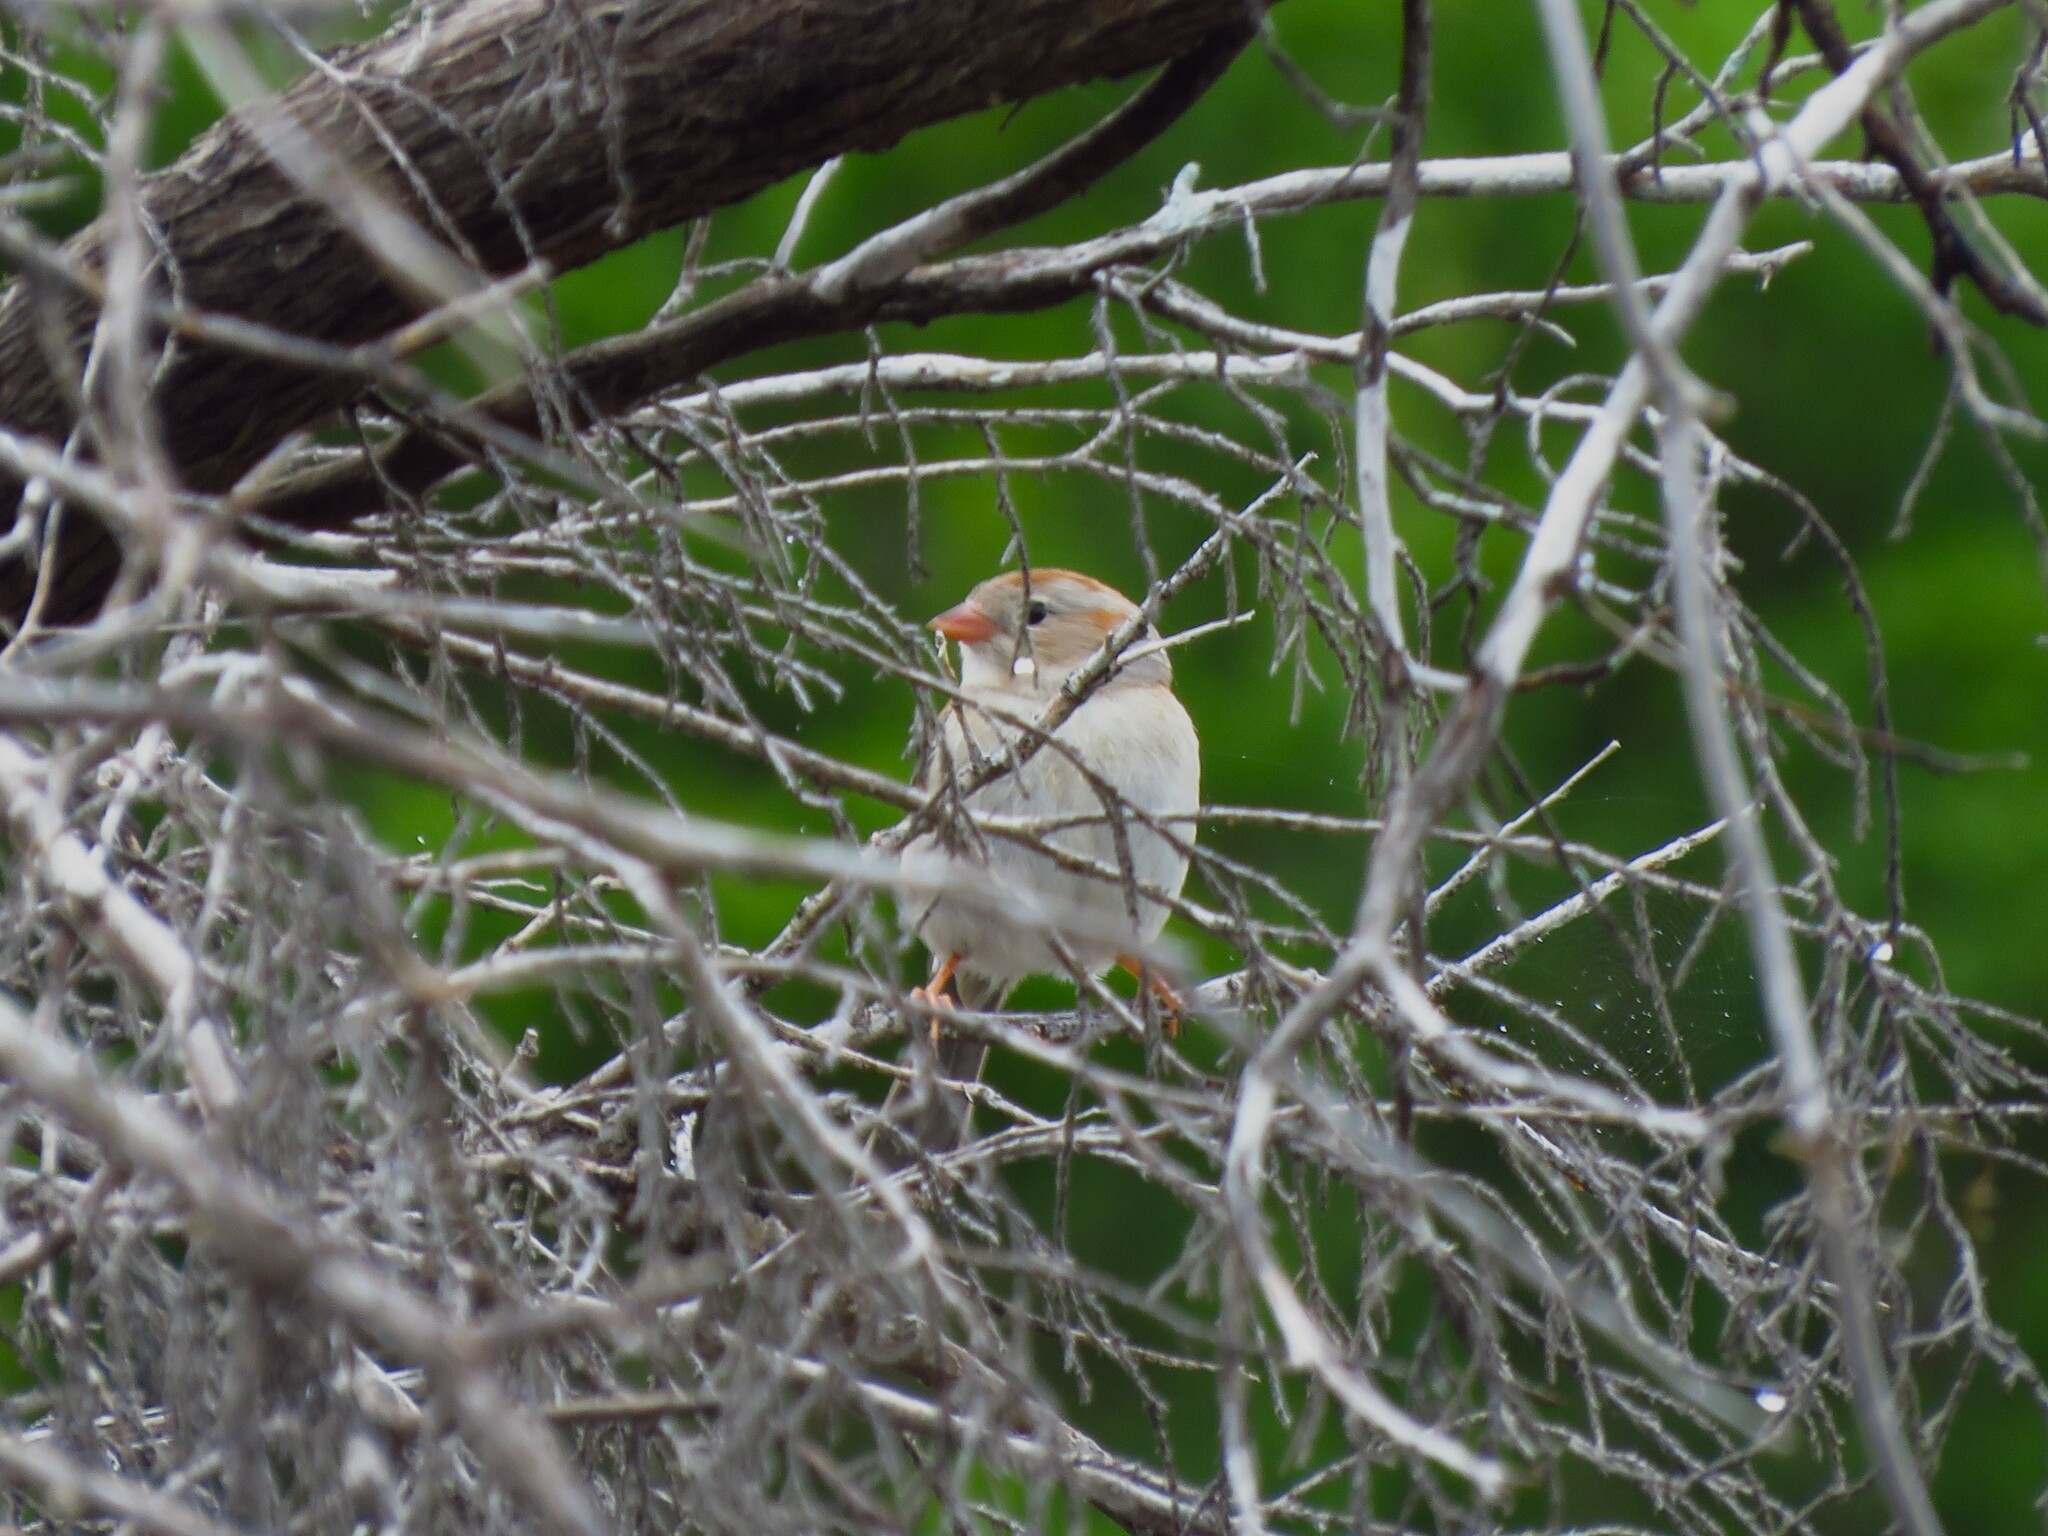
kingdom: Animalia
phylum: Chordata
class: Aves
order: Passeriformes
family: Passerellidae
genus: Spizella
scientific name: Spizella pusilla
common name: Field sparrow
